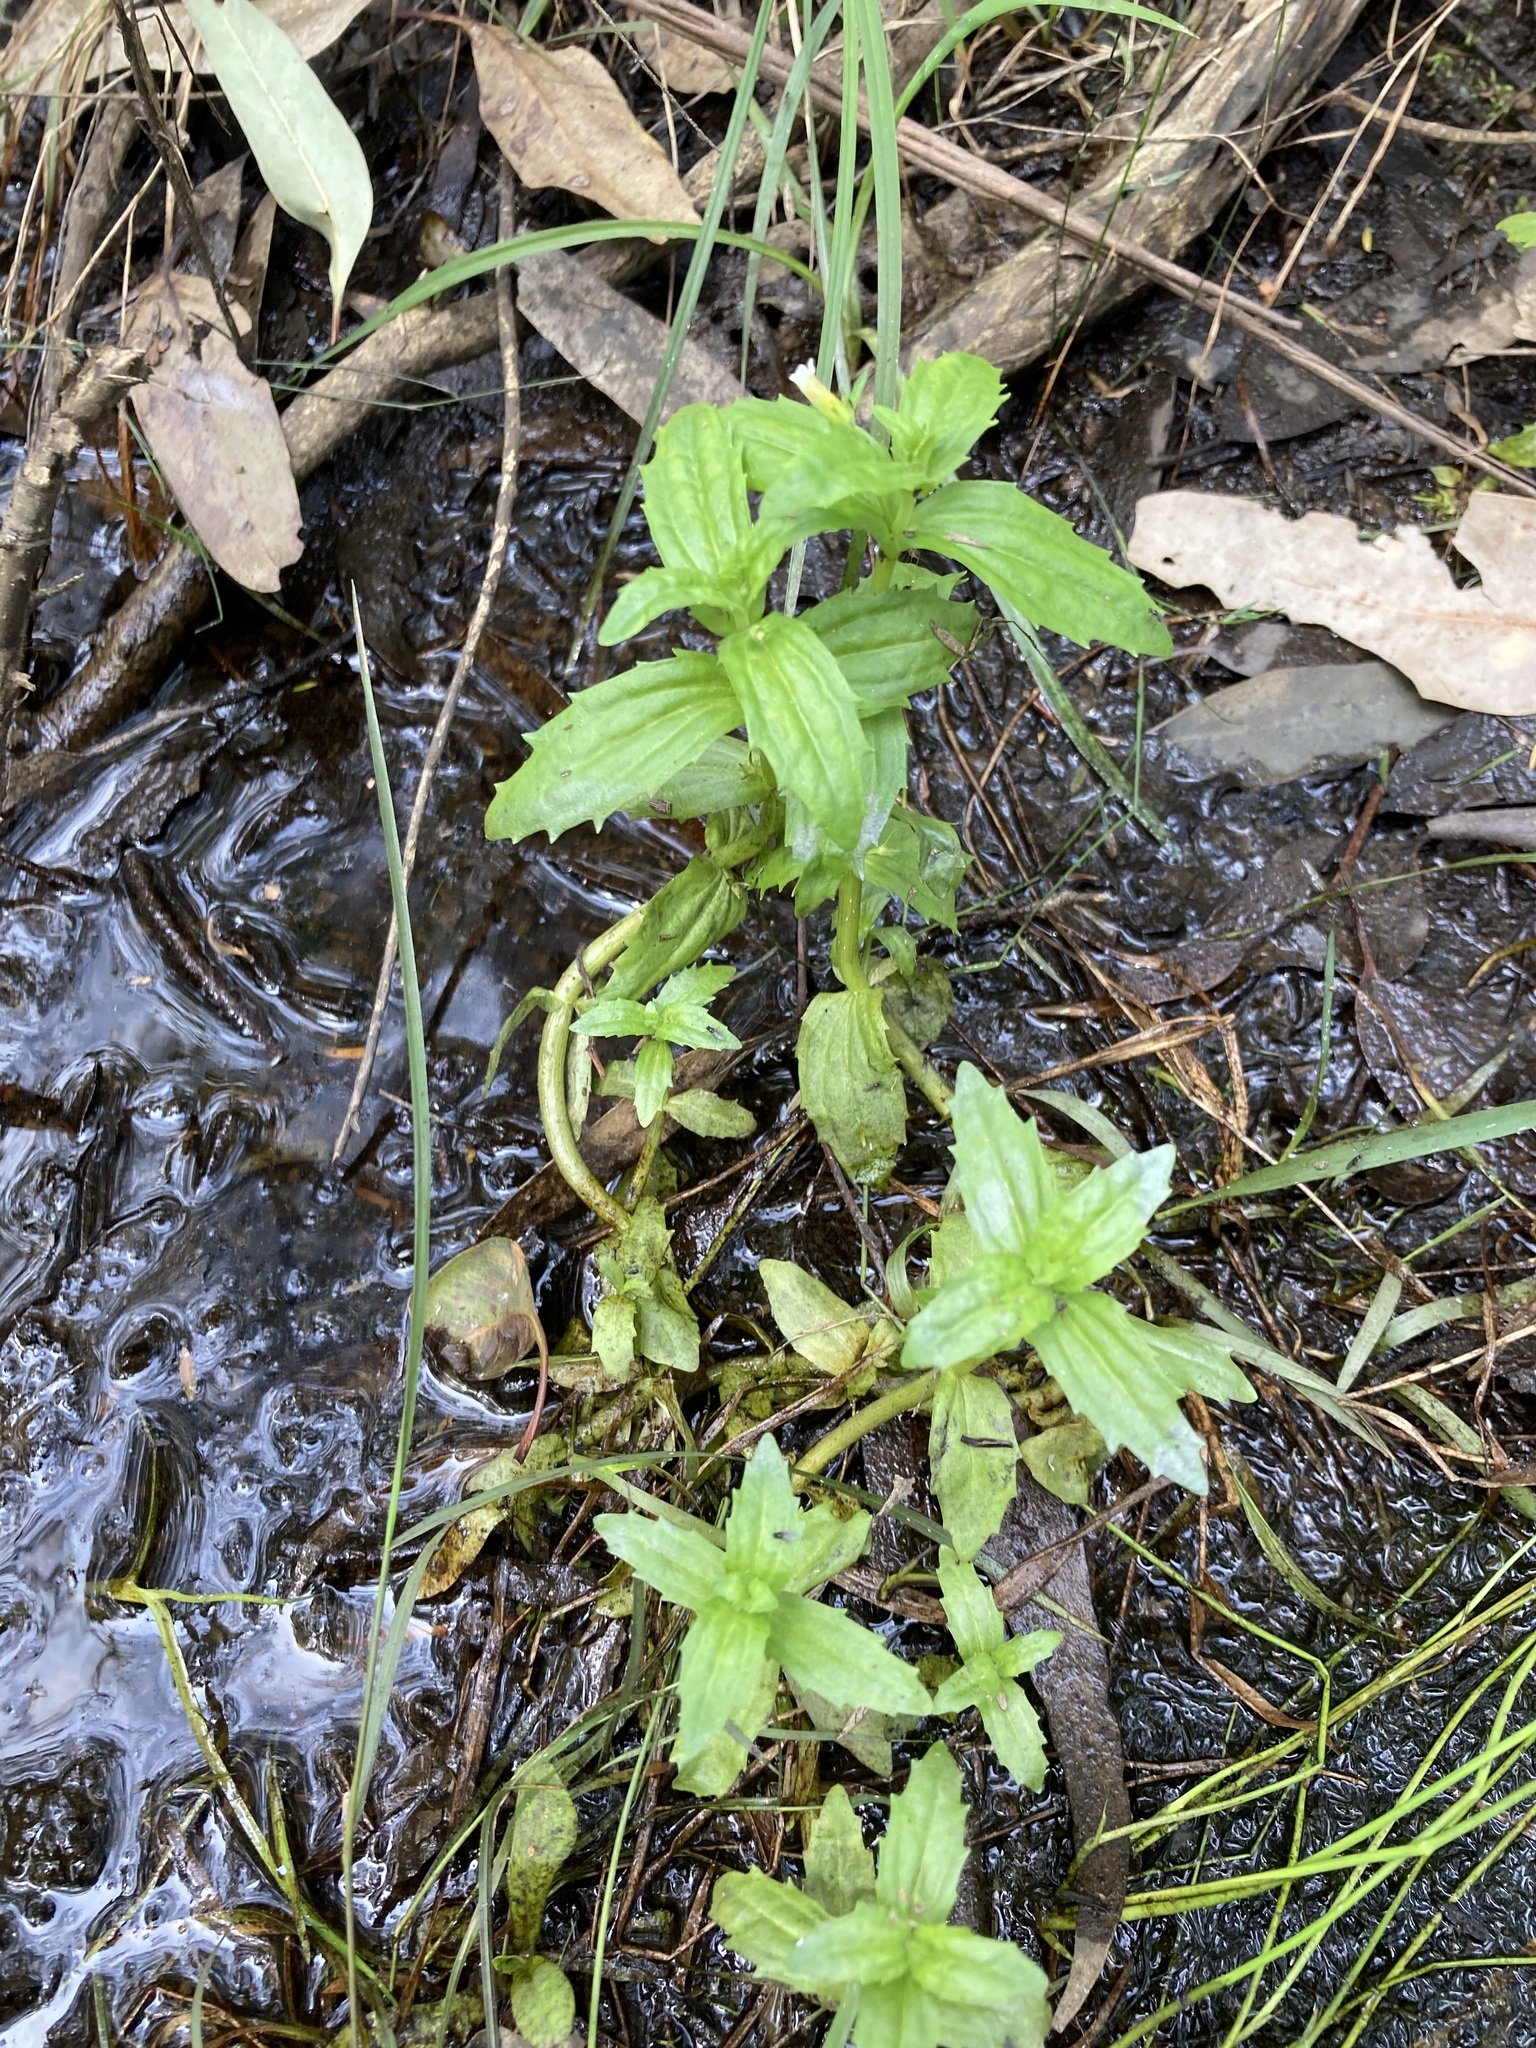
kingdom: Plantae
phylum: Tracheophyta
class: Magnoliopsida
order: Lamiales
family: Plantaginaceae
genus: Gratiola
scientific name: Gratiola pedunculata
